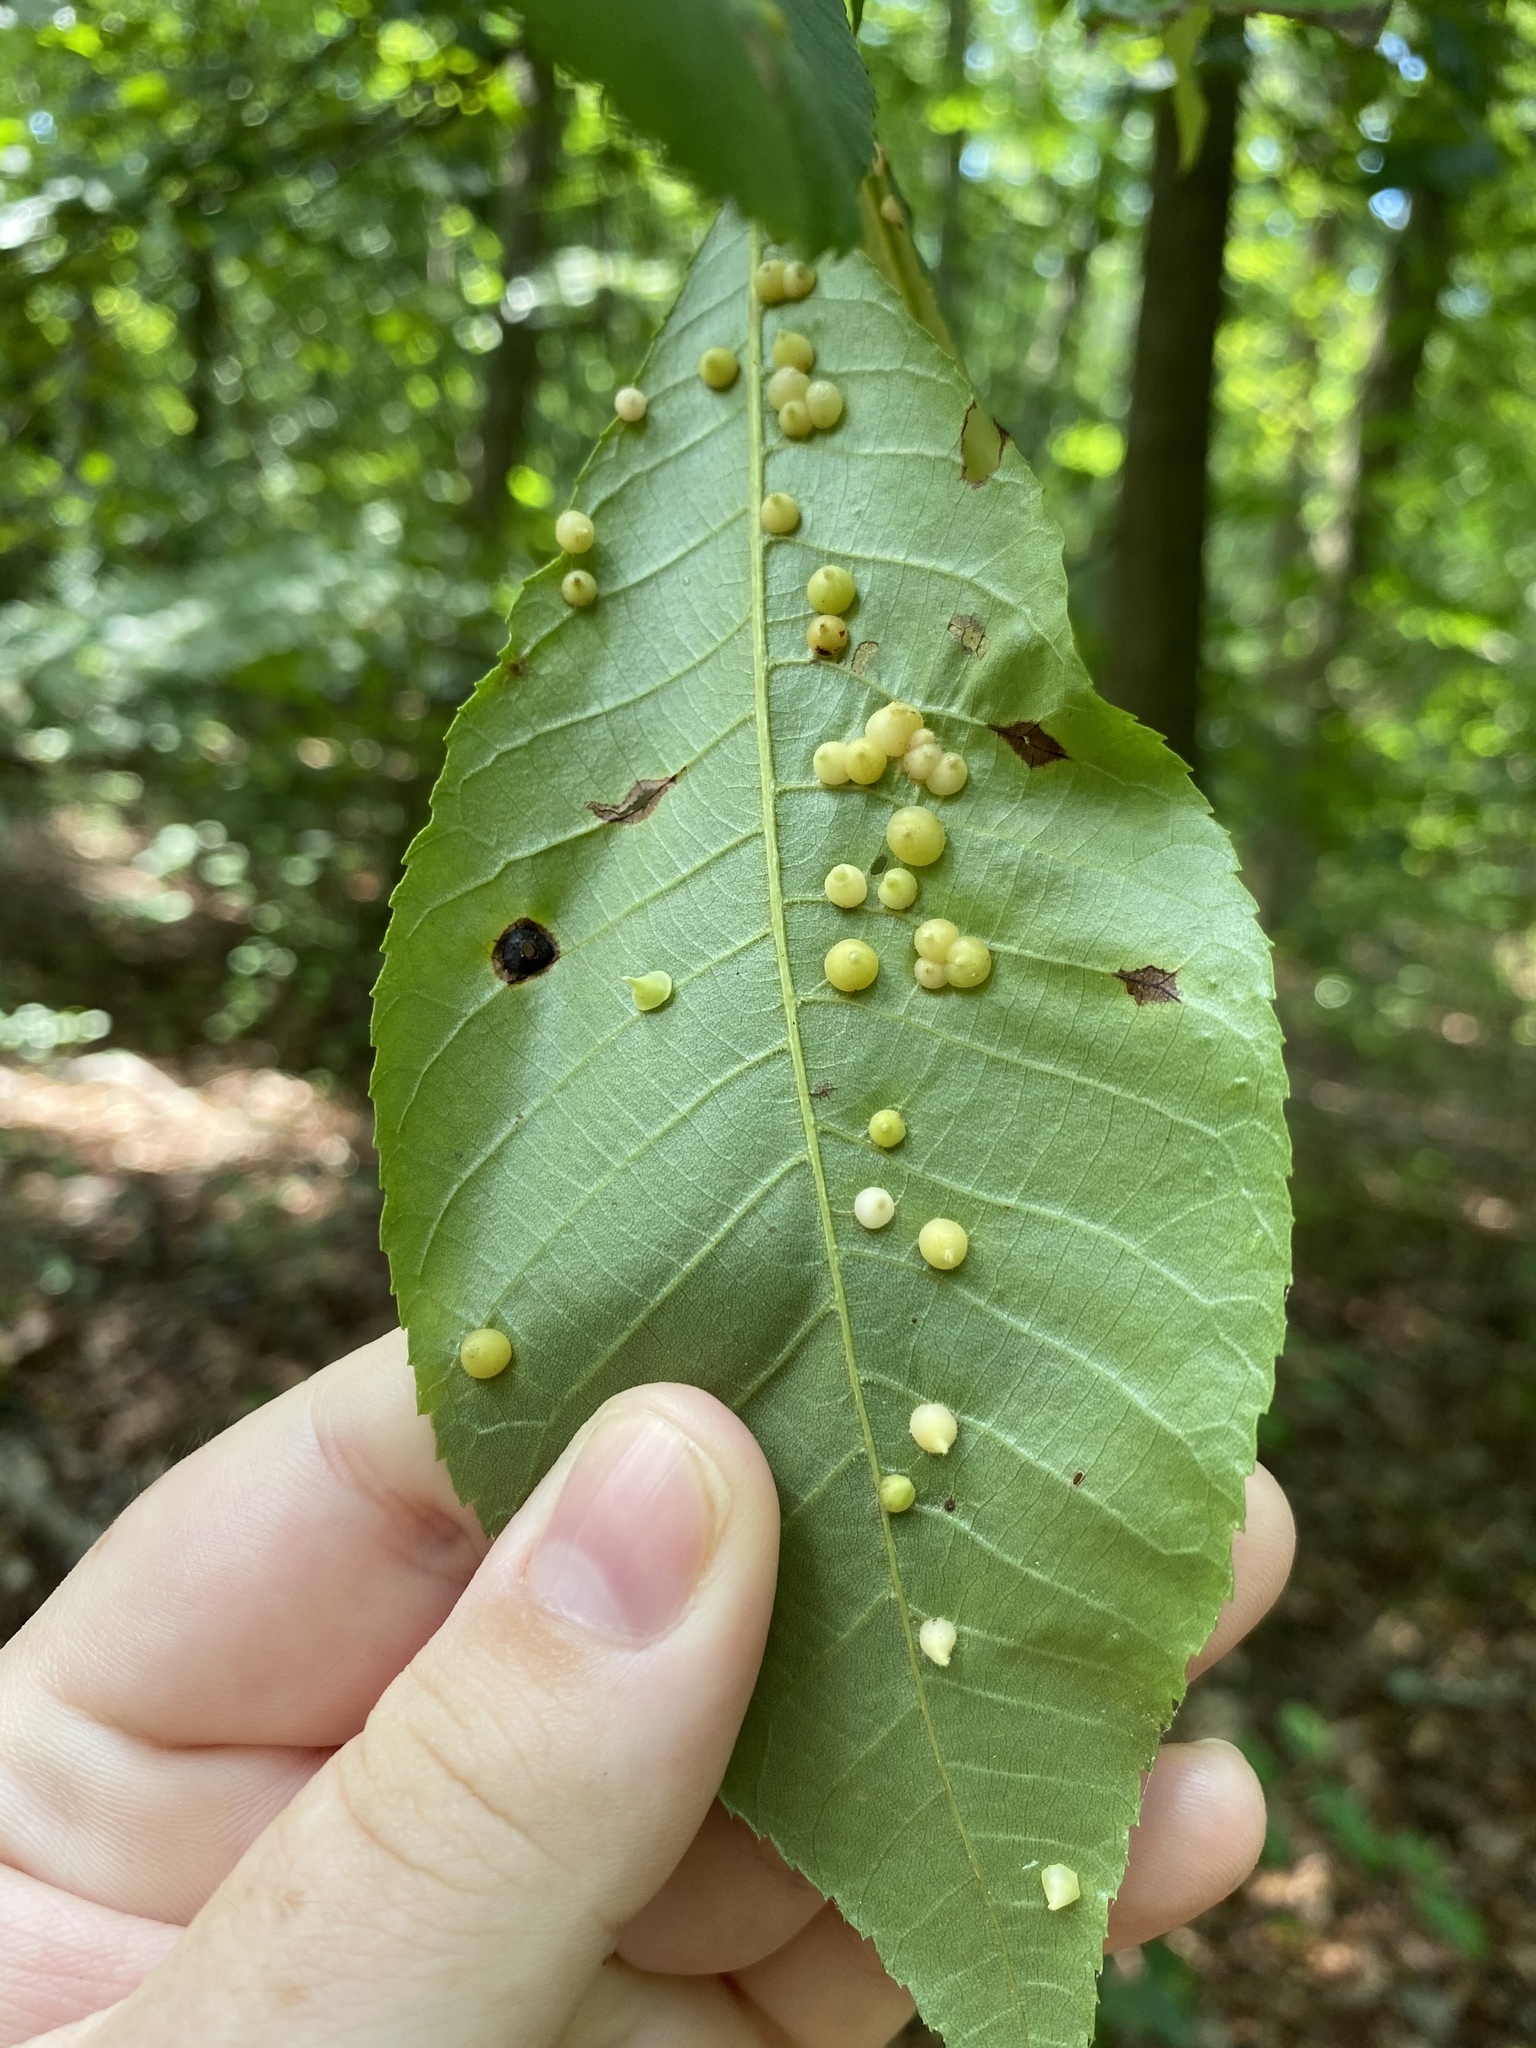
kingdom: Animalia
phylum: Arthropoda
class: Insecta
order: Diptera
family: Cecidomyiidae
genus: Caryomyia
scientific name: Caryomyia conoidea
